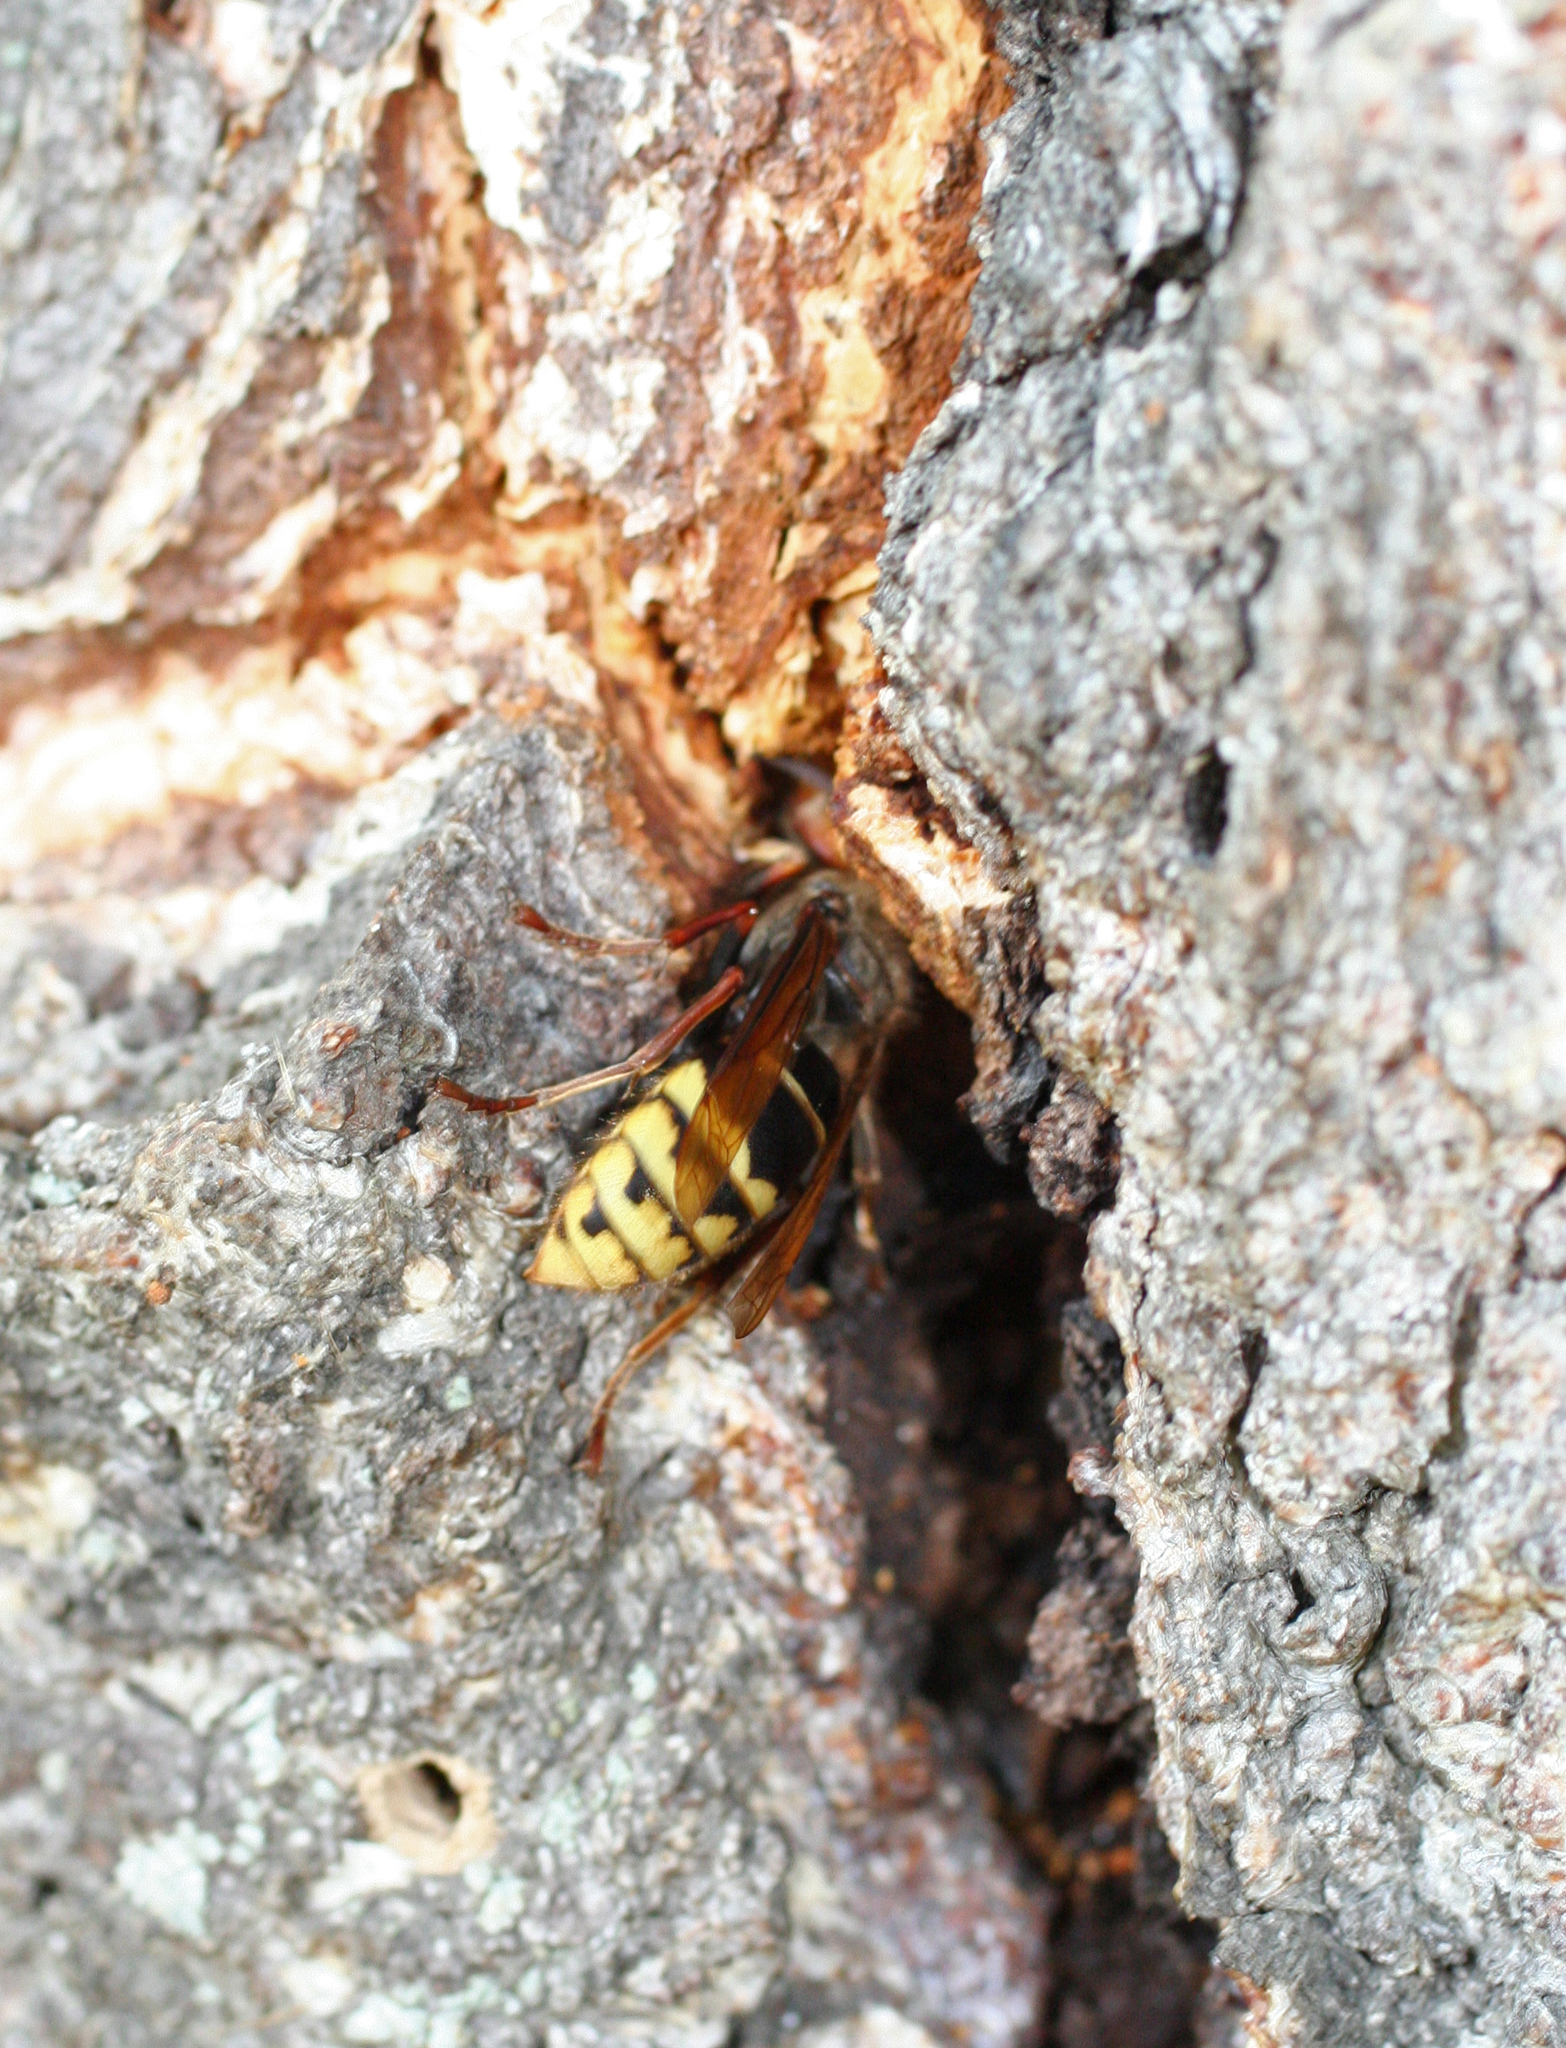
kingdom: Animalia
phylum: Arthropoda
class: Insecta
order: Hymenoptera
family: Vespidae
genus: Vespa
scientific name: Vespa crabro
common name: Hornet
